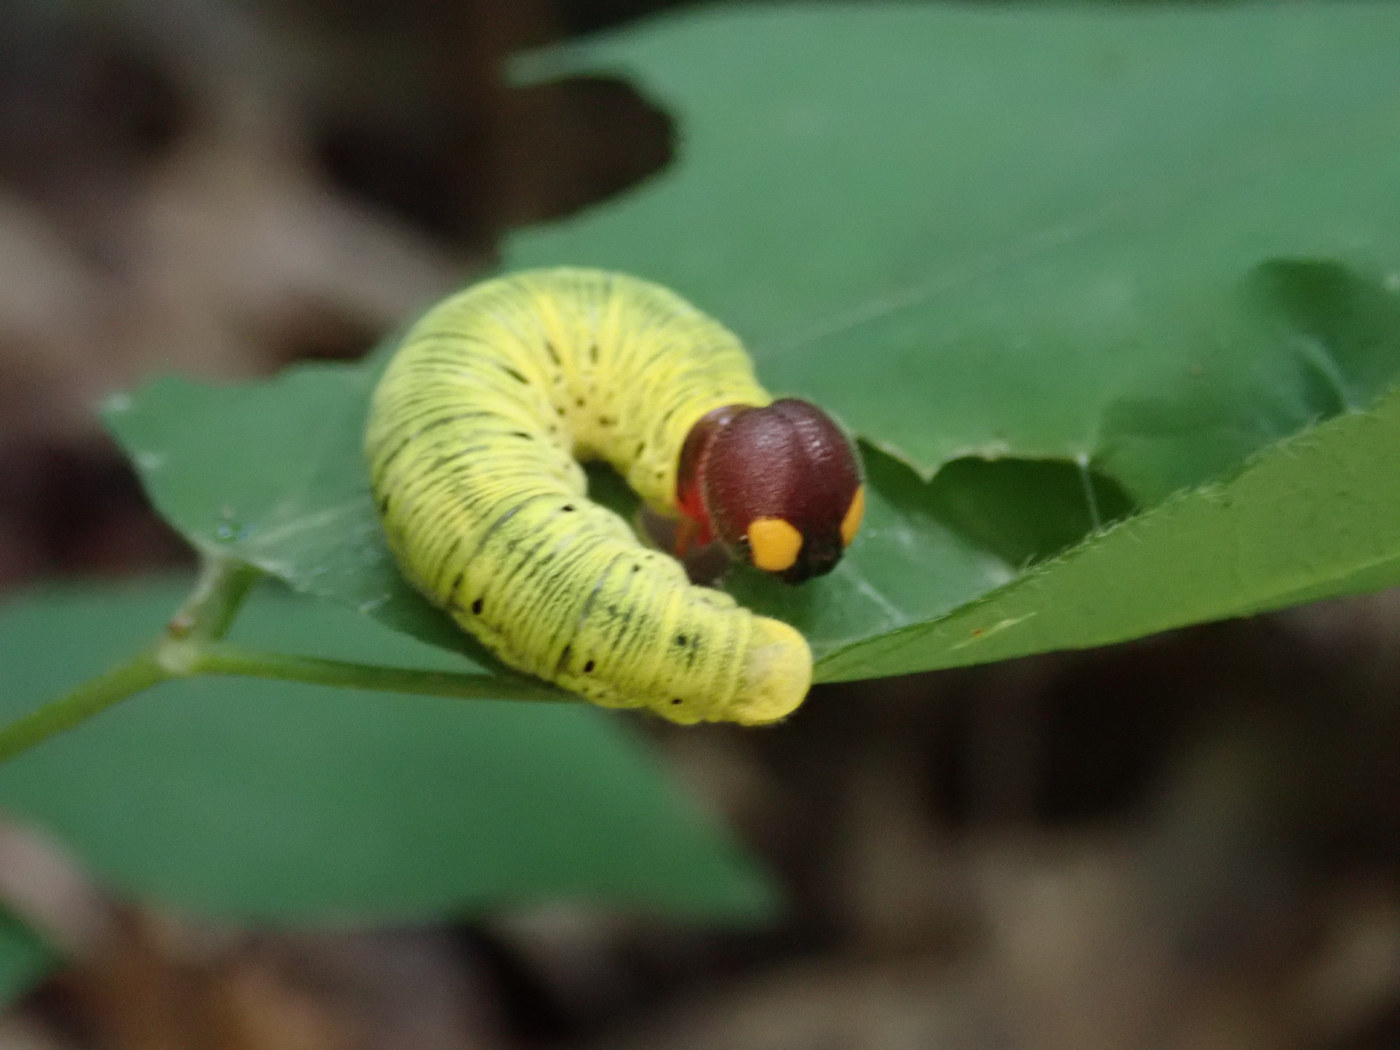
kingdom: Animalia
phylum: Arthropoda
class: Insecta
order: Lepidoptera
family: Hesperiidae
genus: Epargyreus
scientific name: Epargyreus clarus
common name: Silver-spotted skipper
